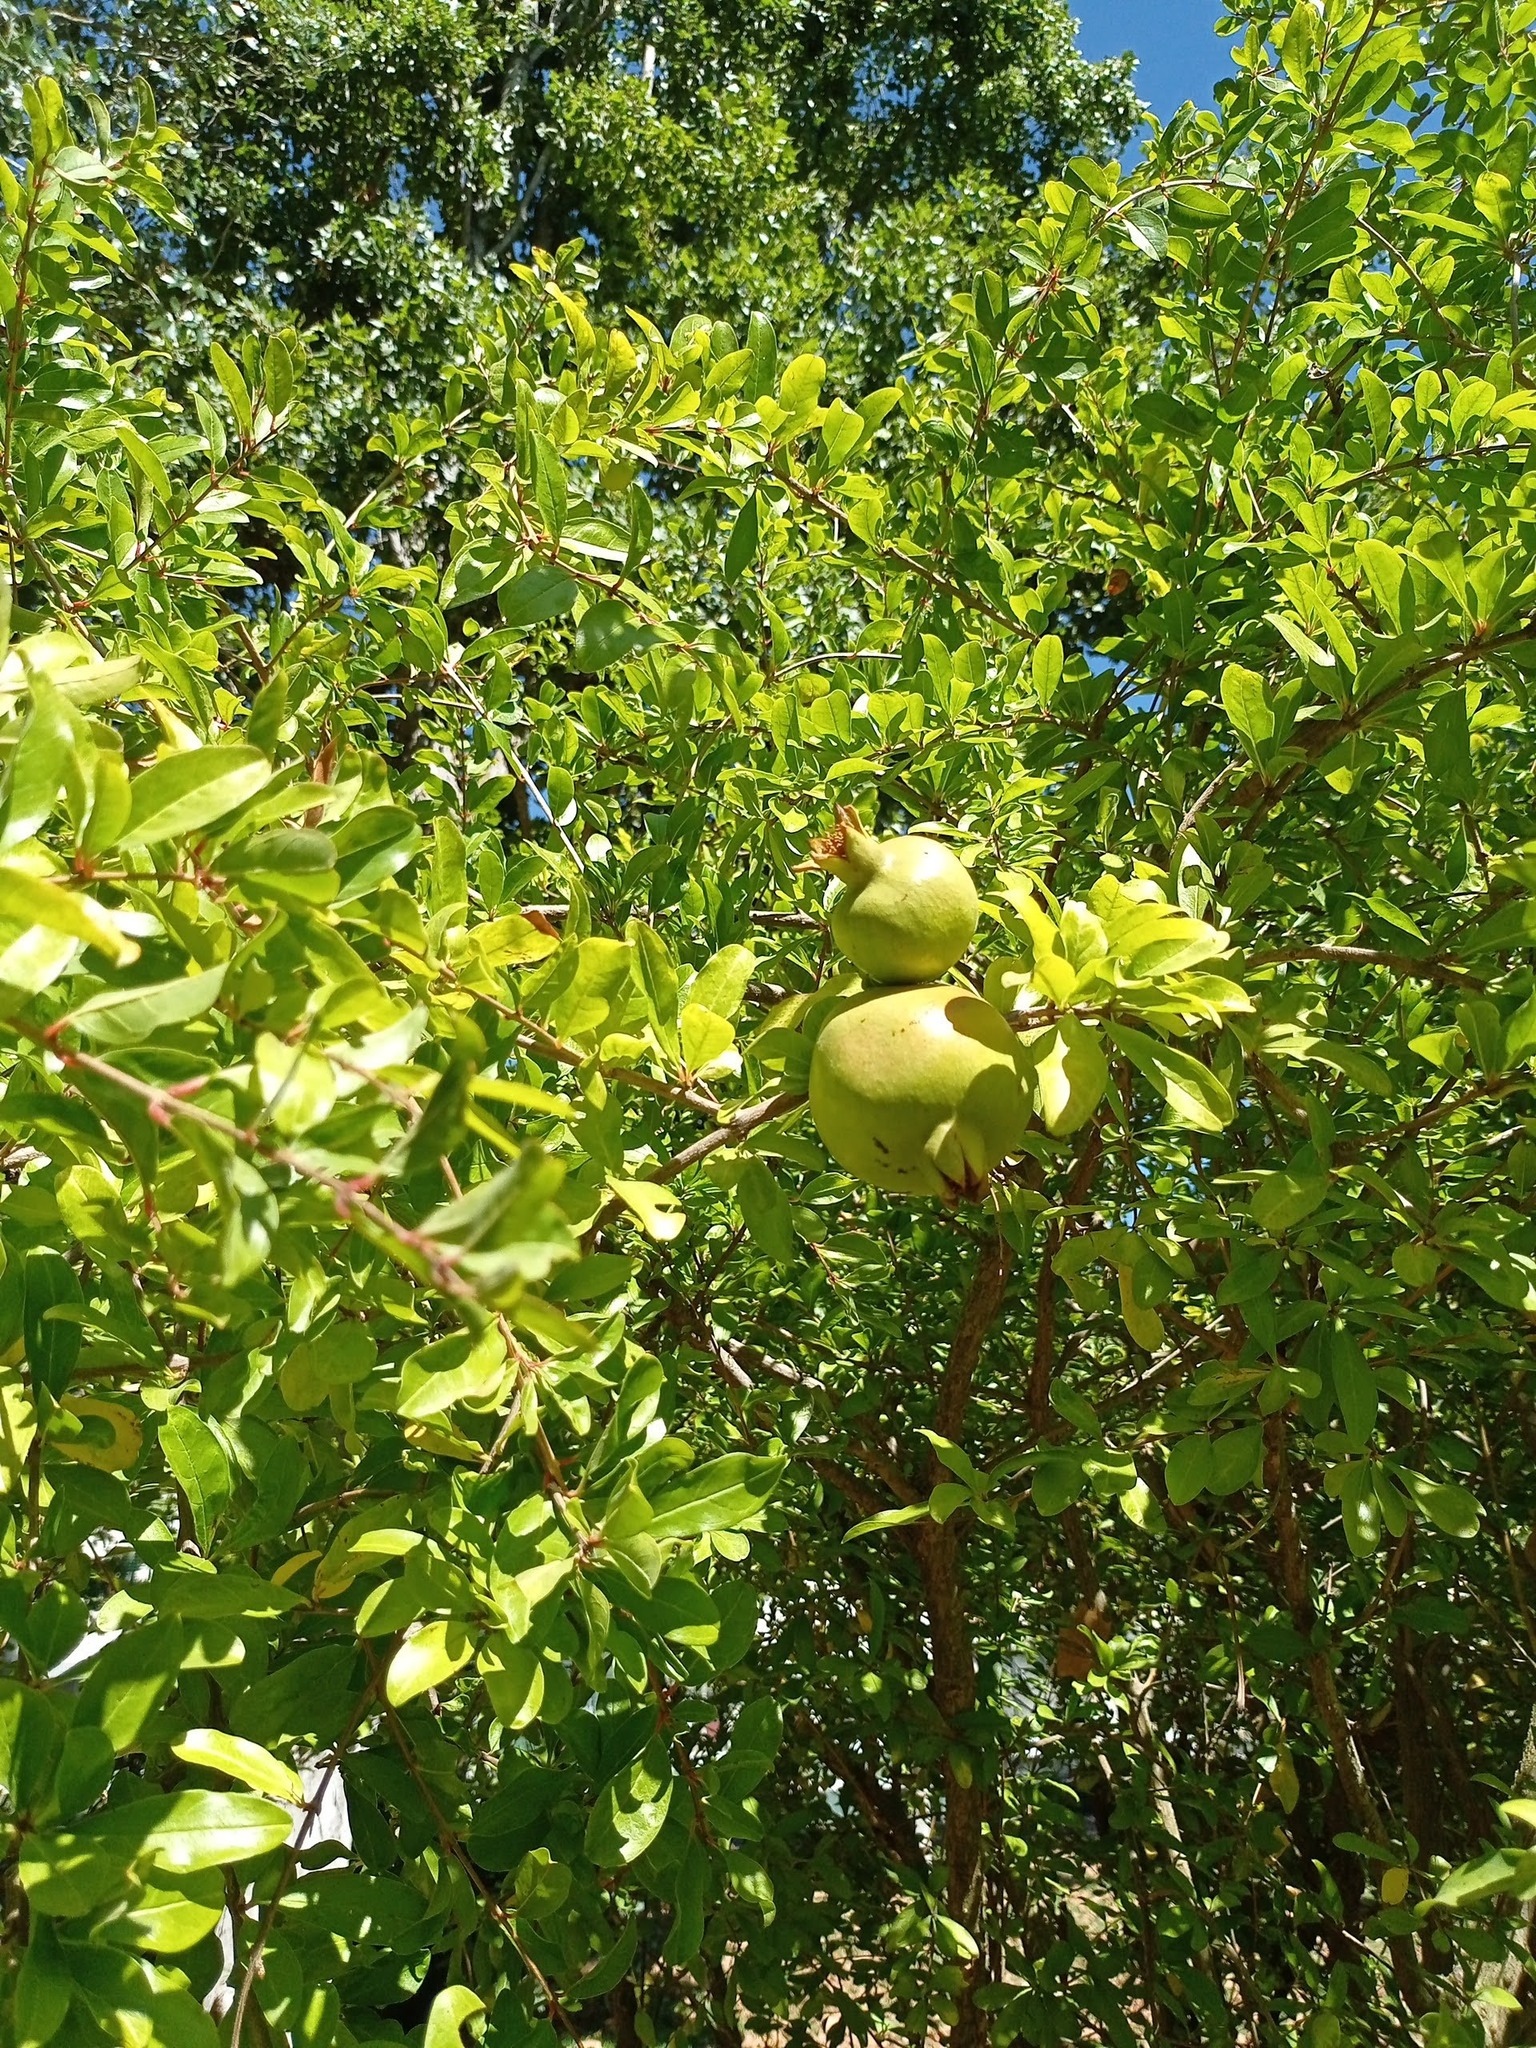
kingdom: Plantae
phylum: Tracheophyta
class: Magnoliopsida
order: Myrtales
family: Lythraceae
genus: Punica
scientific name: Punica granatum
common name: Pomegranate
